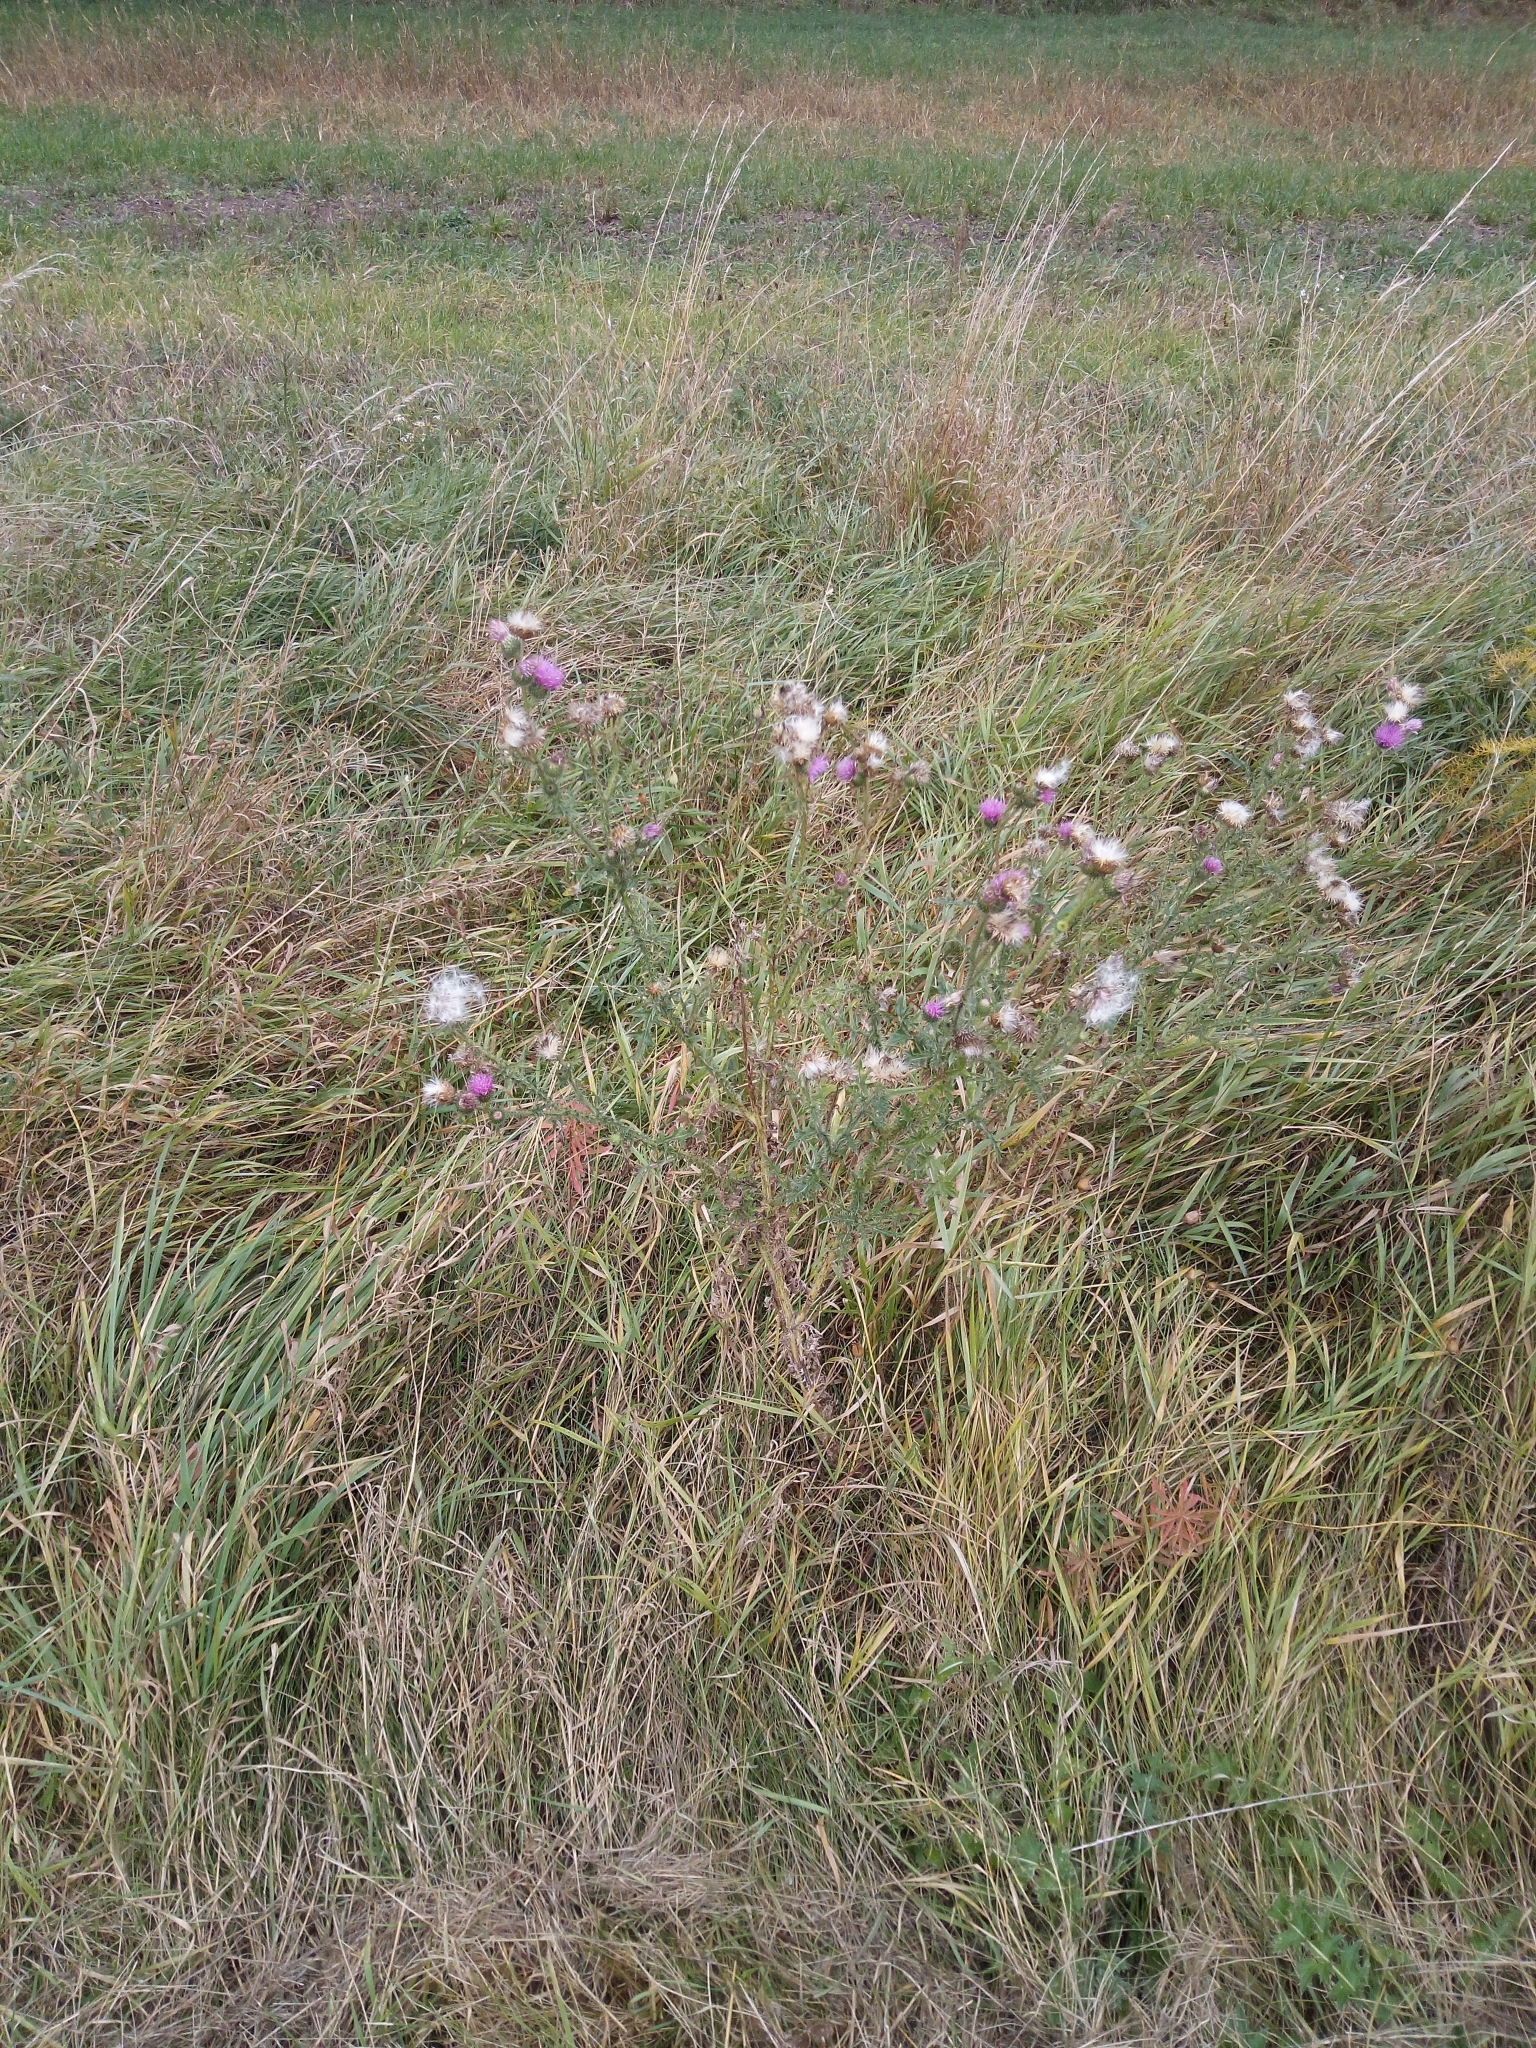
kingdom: Plantae
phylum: Tracheophyta
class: Magnoliopsida
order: Asterales
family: Asteraceae
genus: Carduus
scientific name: Carduus acanthoides
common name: Plumeless thistle
